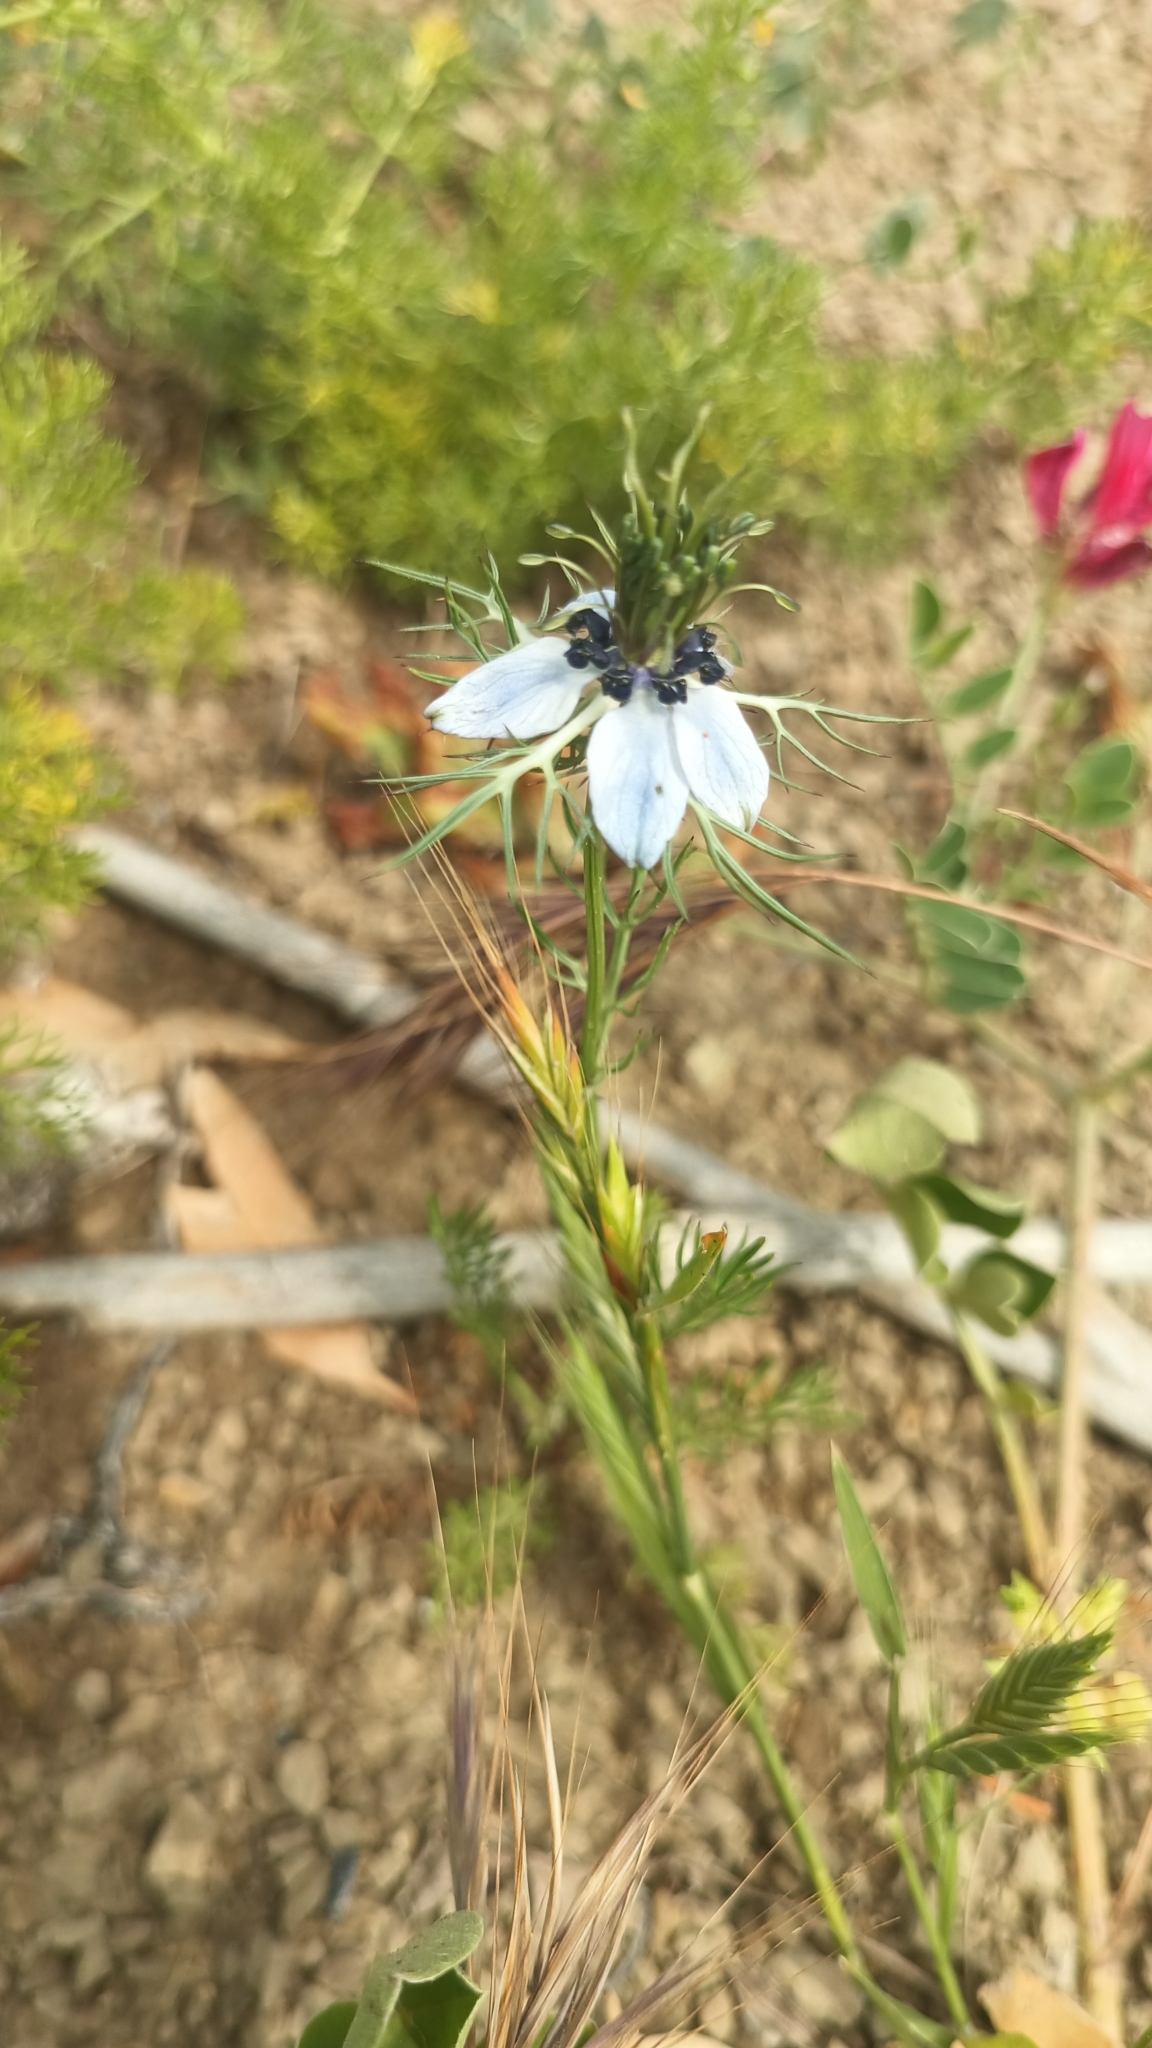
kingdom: Plantae
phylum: Tracheophyta
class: Magnoliopsida
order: Ranunculales
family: Ranunculaceae
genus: Nigella
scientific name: Nigella damascena
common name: Love-in-a-mist
